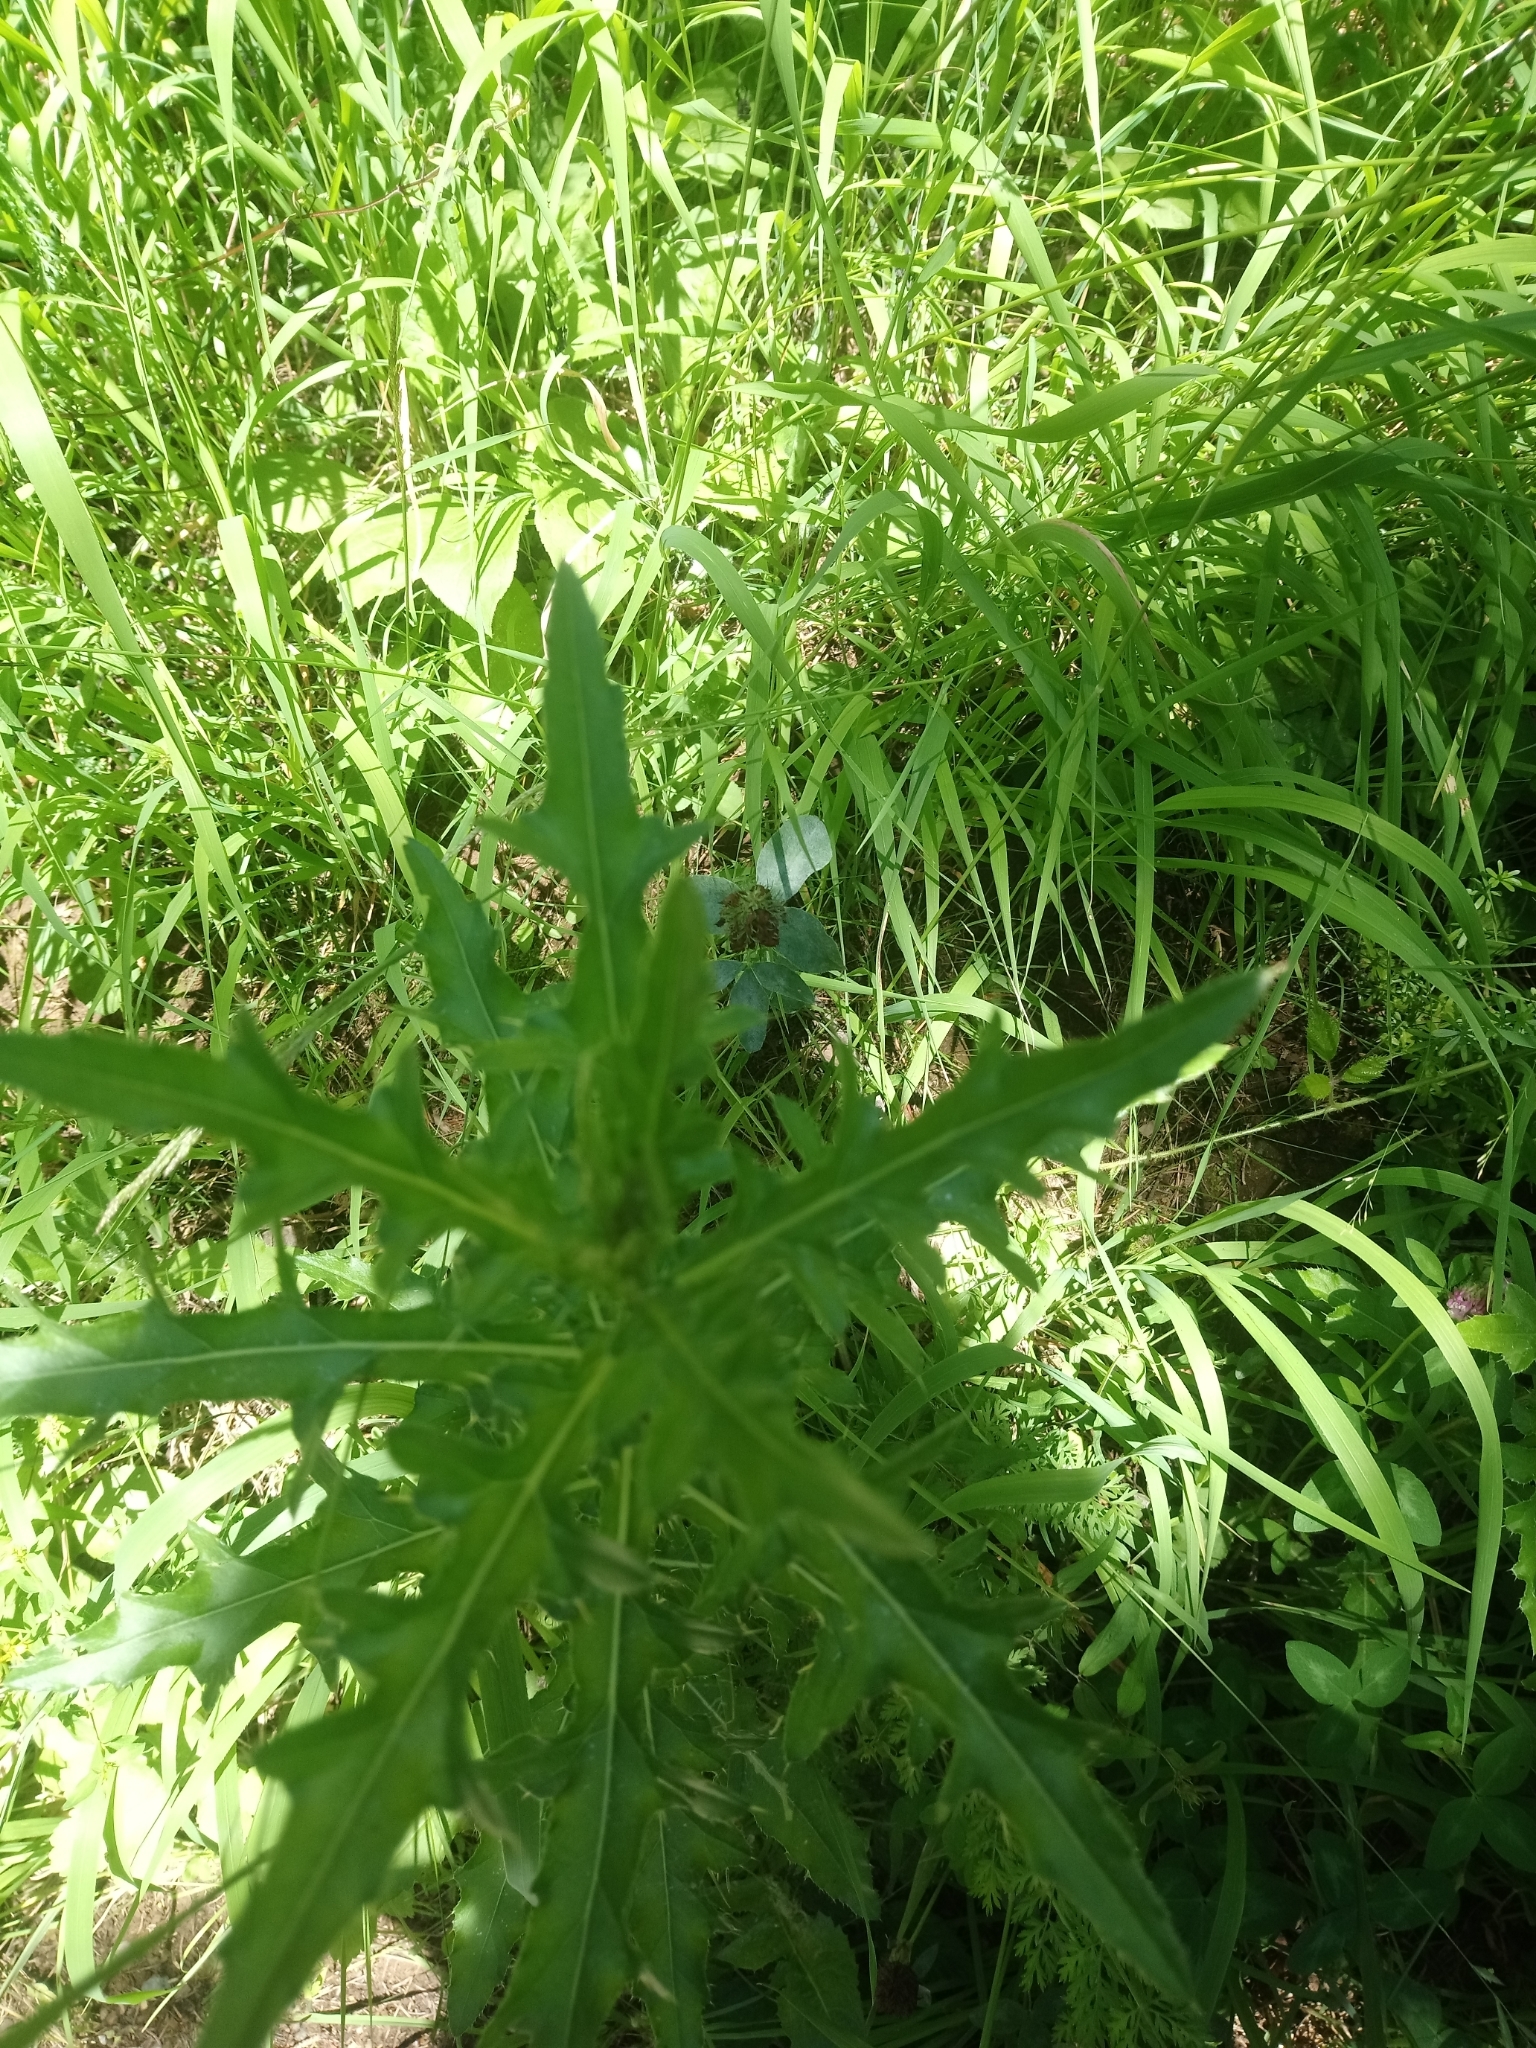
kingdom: Plantae
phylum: Tracheophyta
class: Magnoliopsida
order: Asterales
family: Asteraceae
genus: Cirsium
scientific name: Cirsium arvense
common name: Creeping thistle
